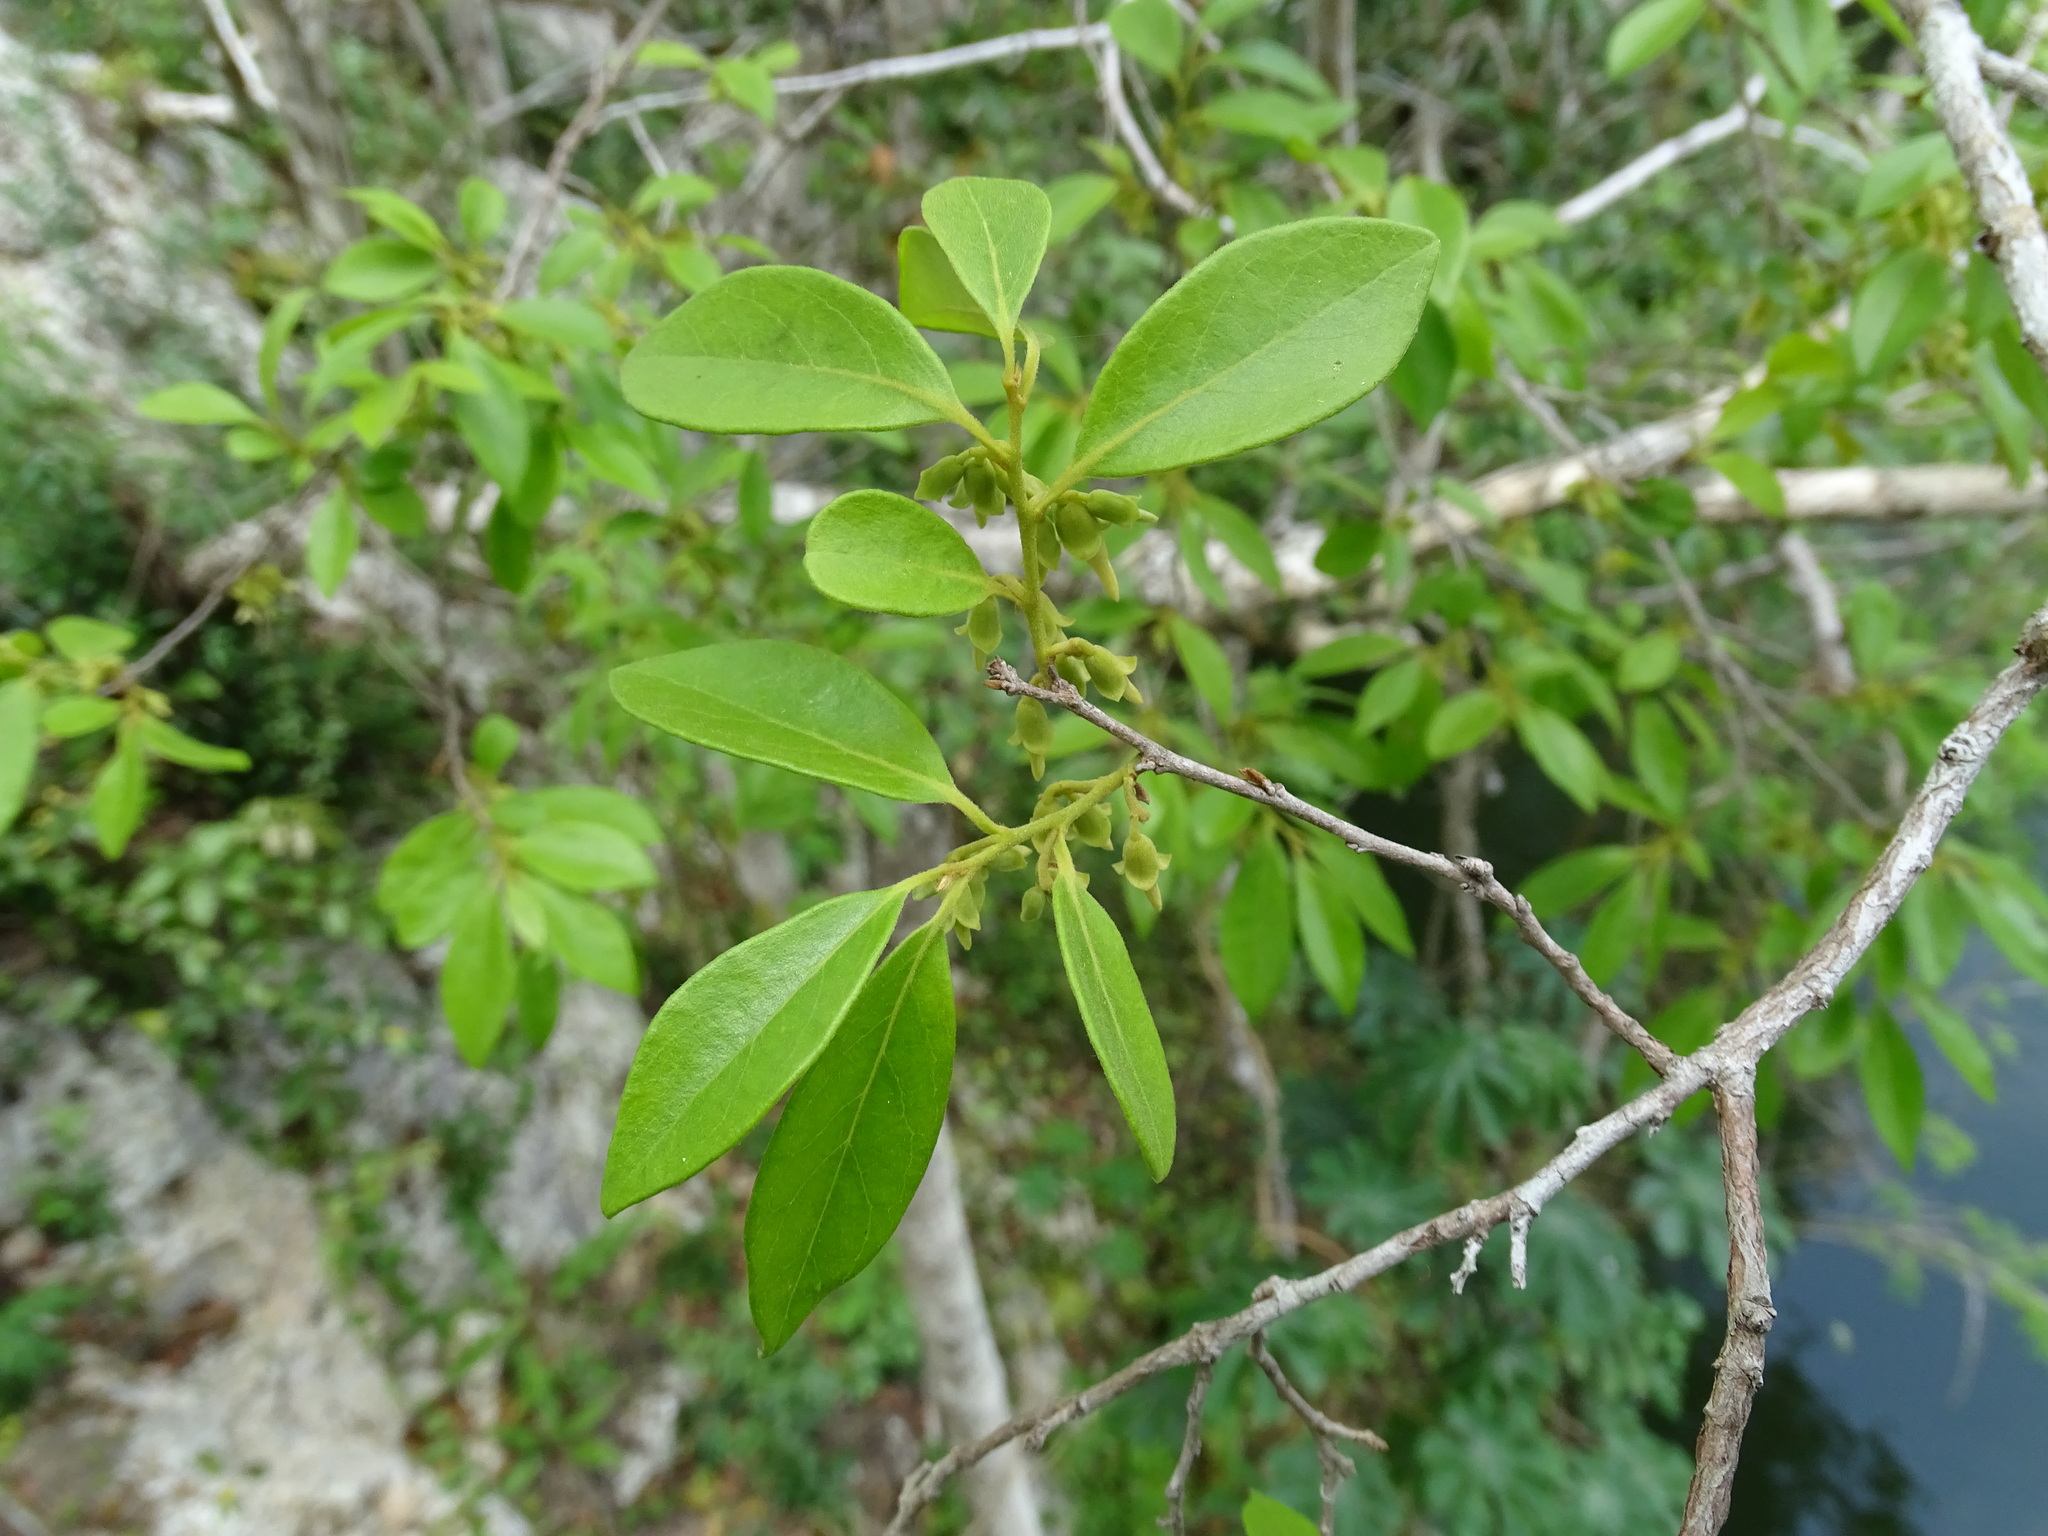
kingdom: Plantae
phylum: Tracheophyta
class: Magnoliopsida
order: Ericales
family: Ebenaceae
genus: Diospyros
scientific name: Diospyros salicifolia
